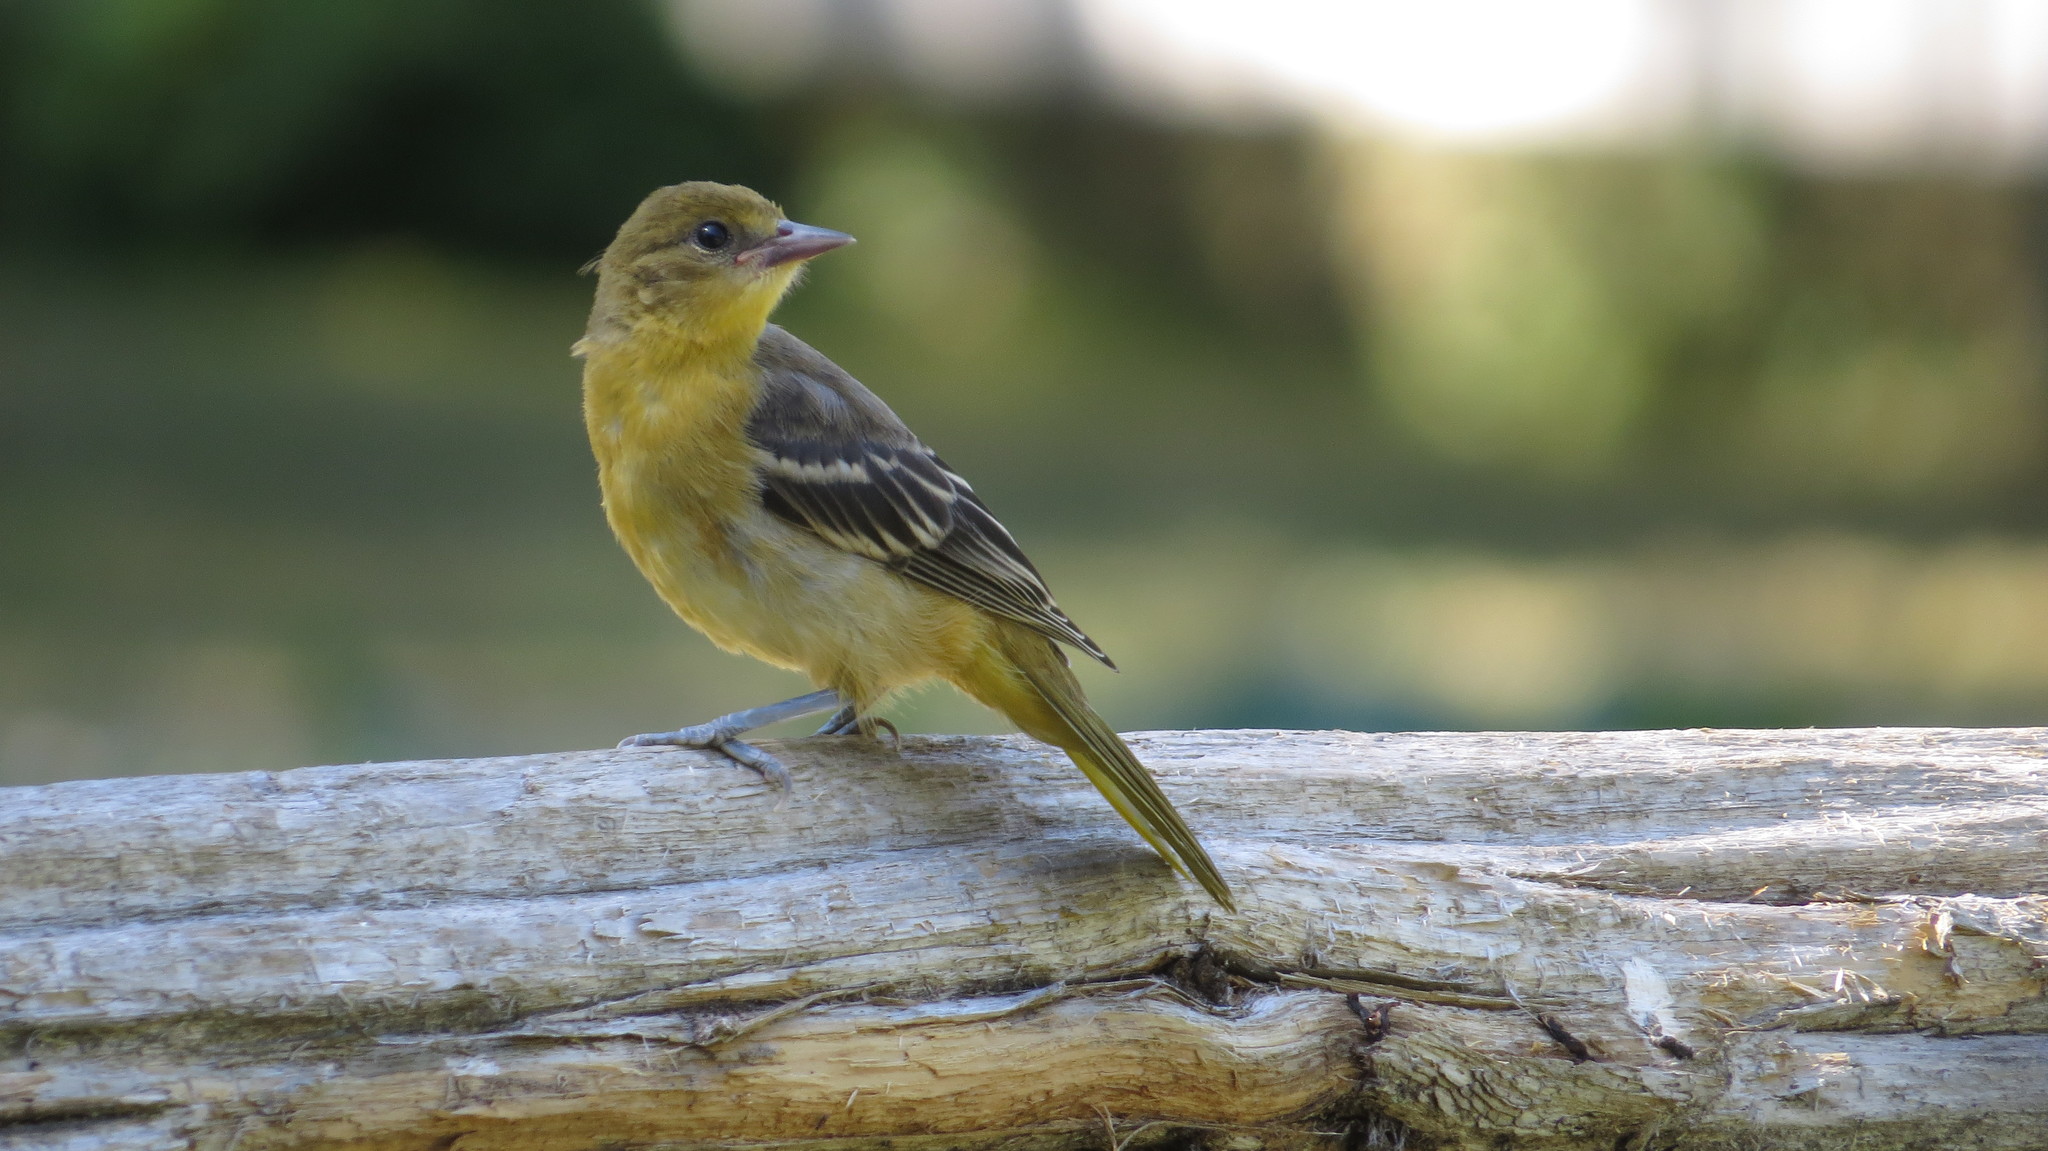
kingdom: Animalia
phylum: Chordata
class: Aves
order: Passeriformes
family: Icteridae
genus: Icterus
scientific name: Icterus galbula
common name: Baltimore oriole
